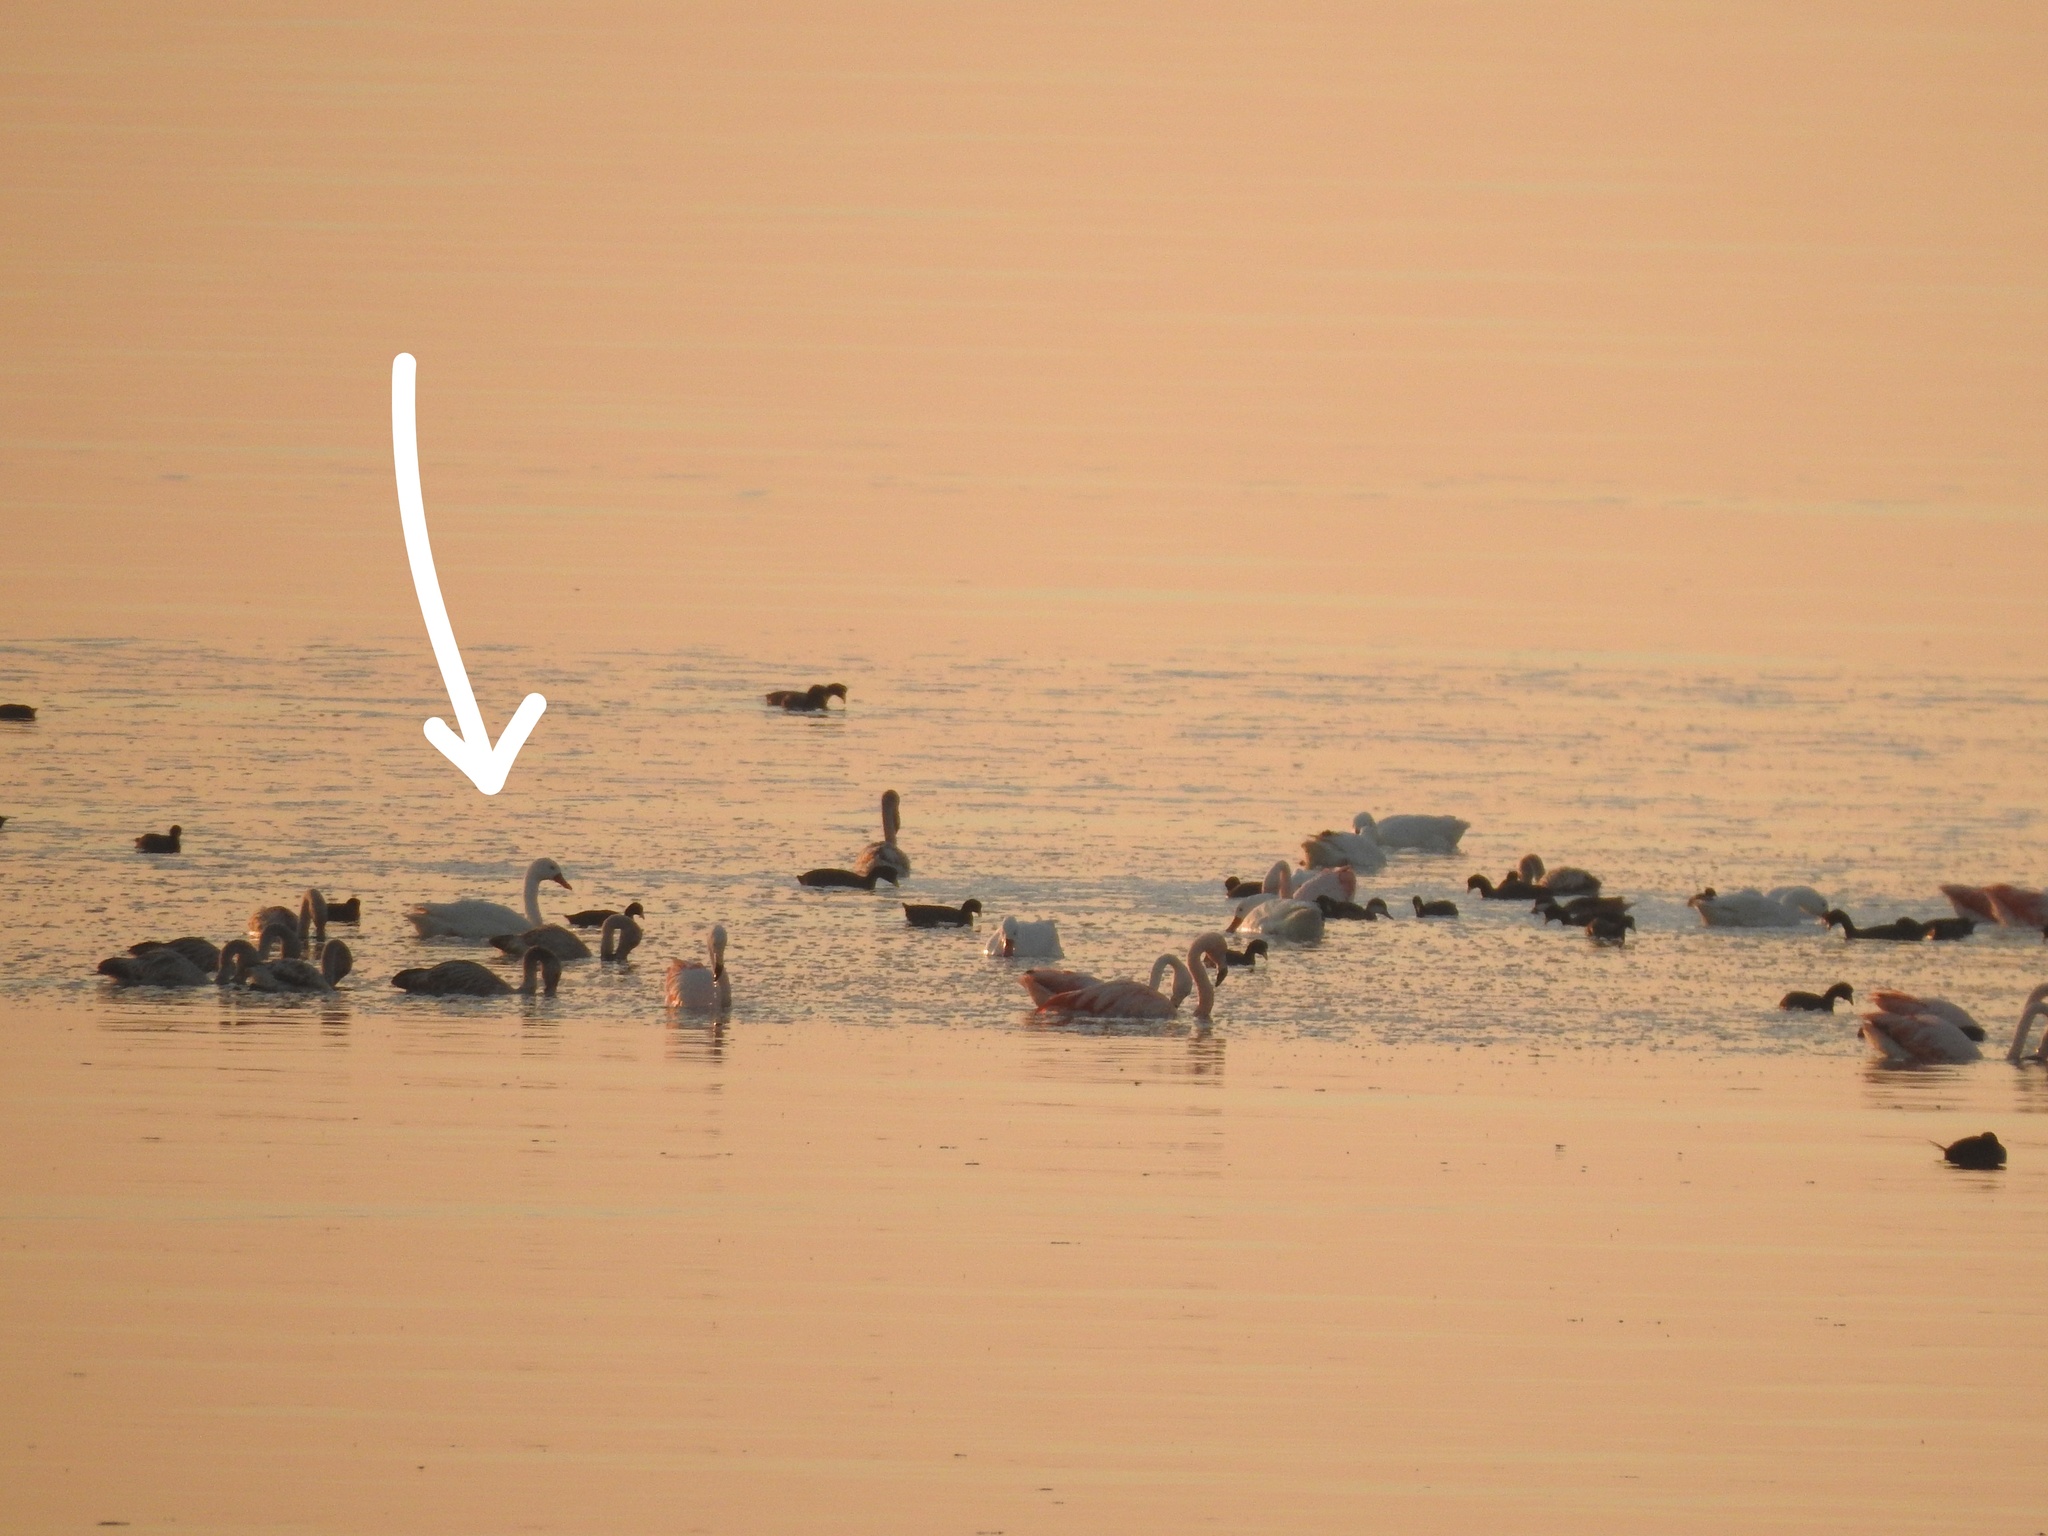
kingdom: Animalia
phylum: Chordata
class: Aves
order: Anseriformes
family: Anatidae
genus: Coscoroba
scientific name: Coscoroba coscoroba
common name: Coscoroba swan
